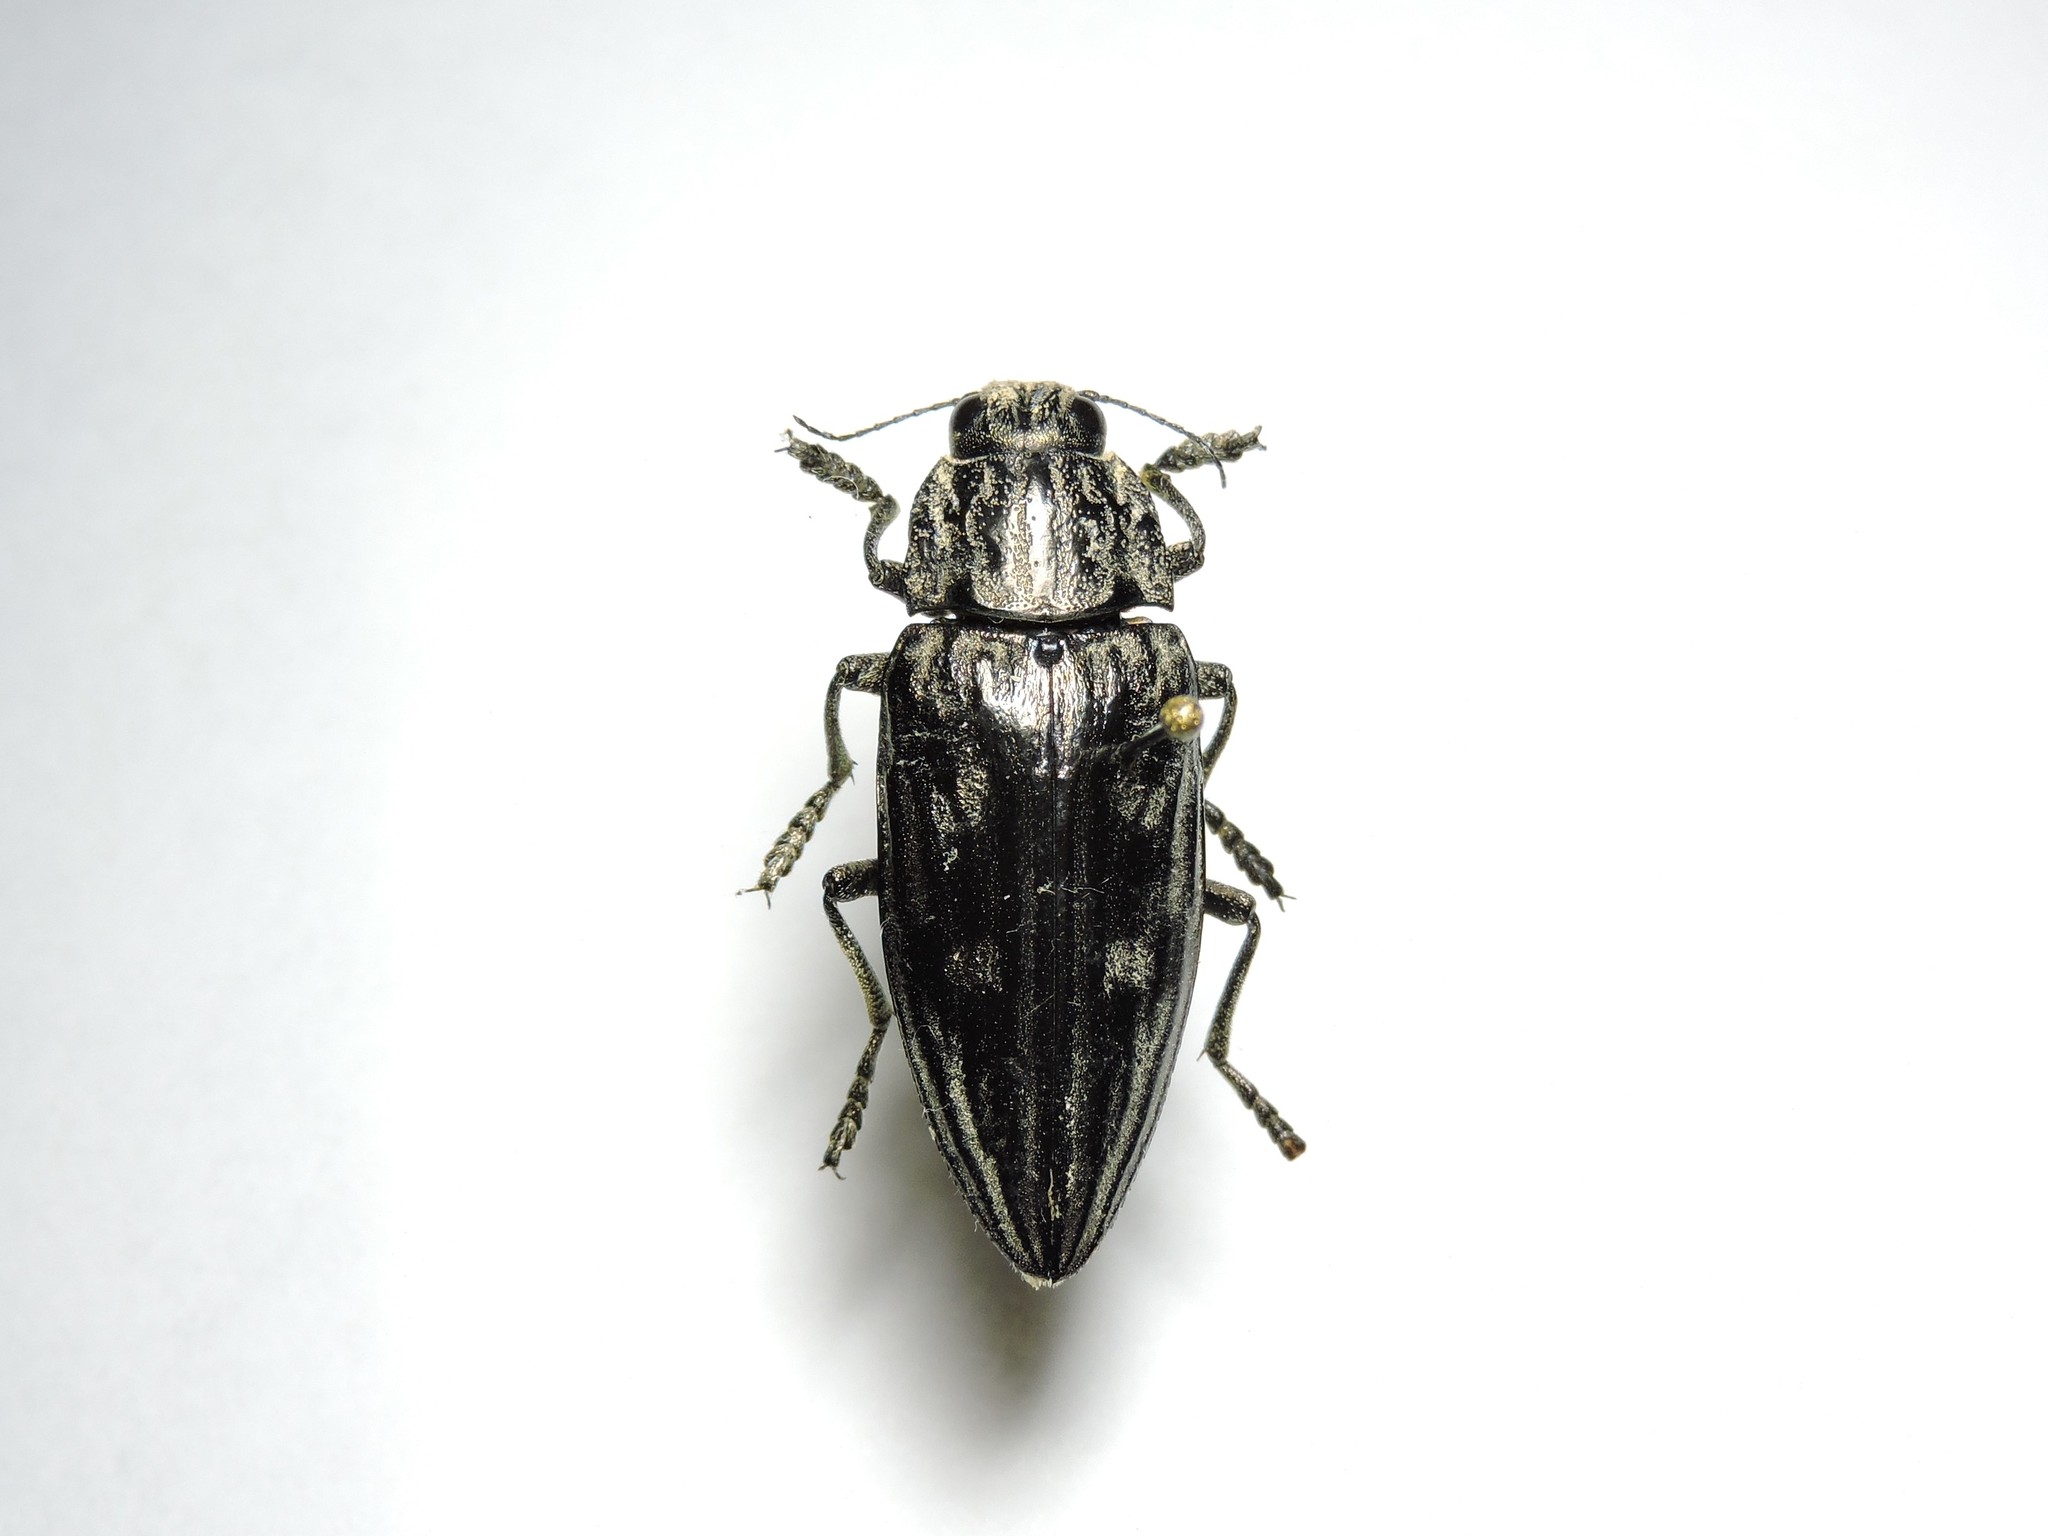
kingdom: Animalia
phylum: Arthropoda
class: Insecta
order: Coleoptera
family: Buprestidae
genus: Chalcophora
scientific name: Chalcophora mariana
